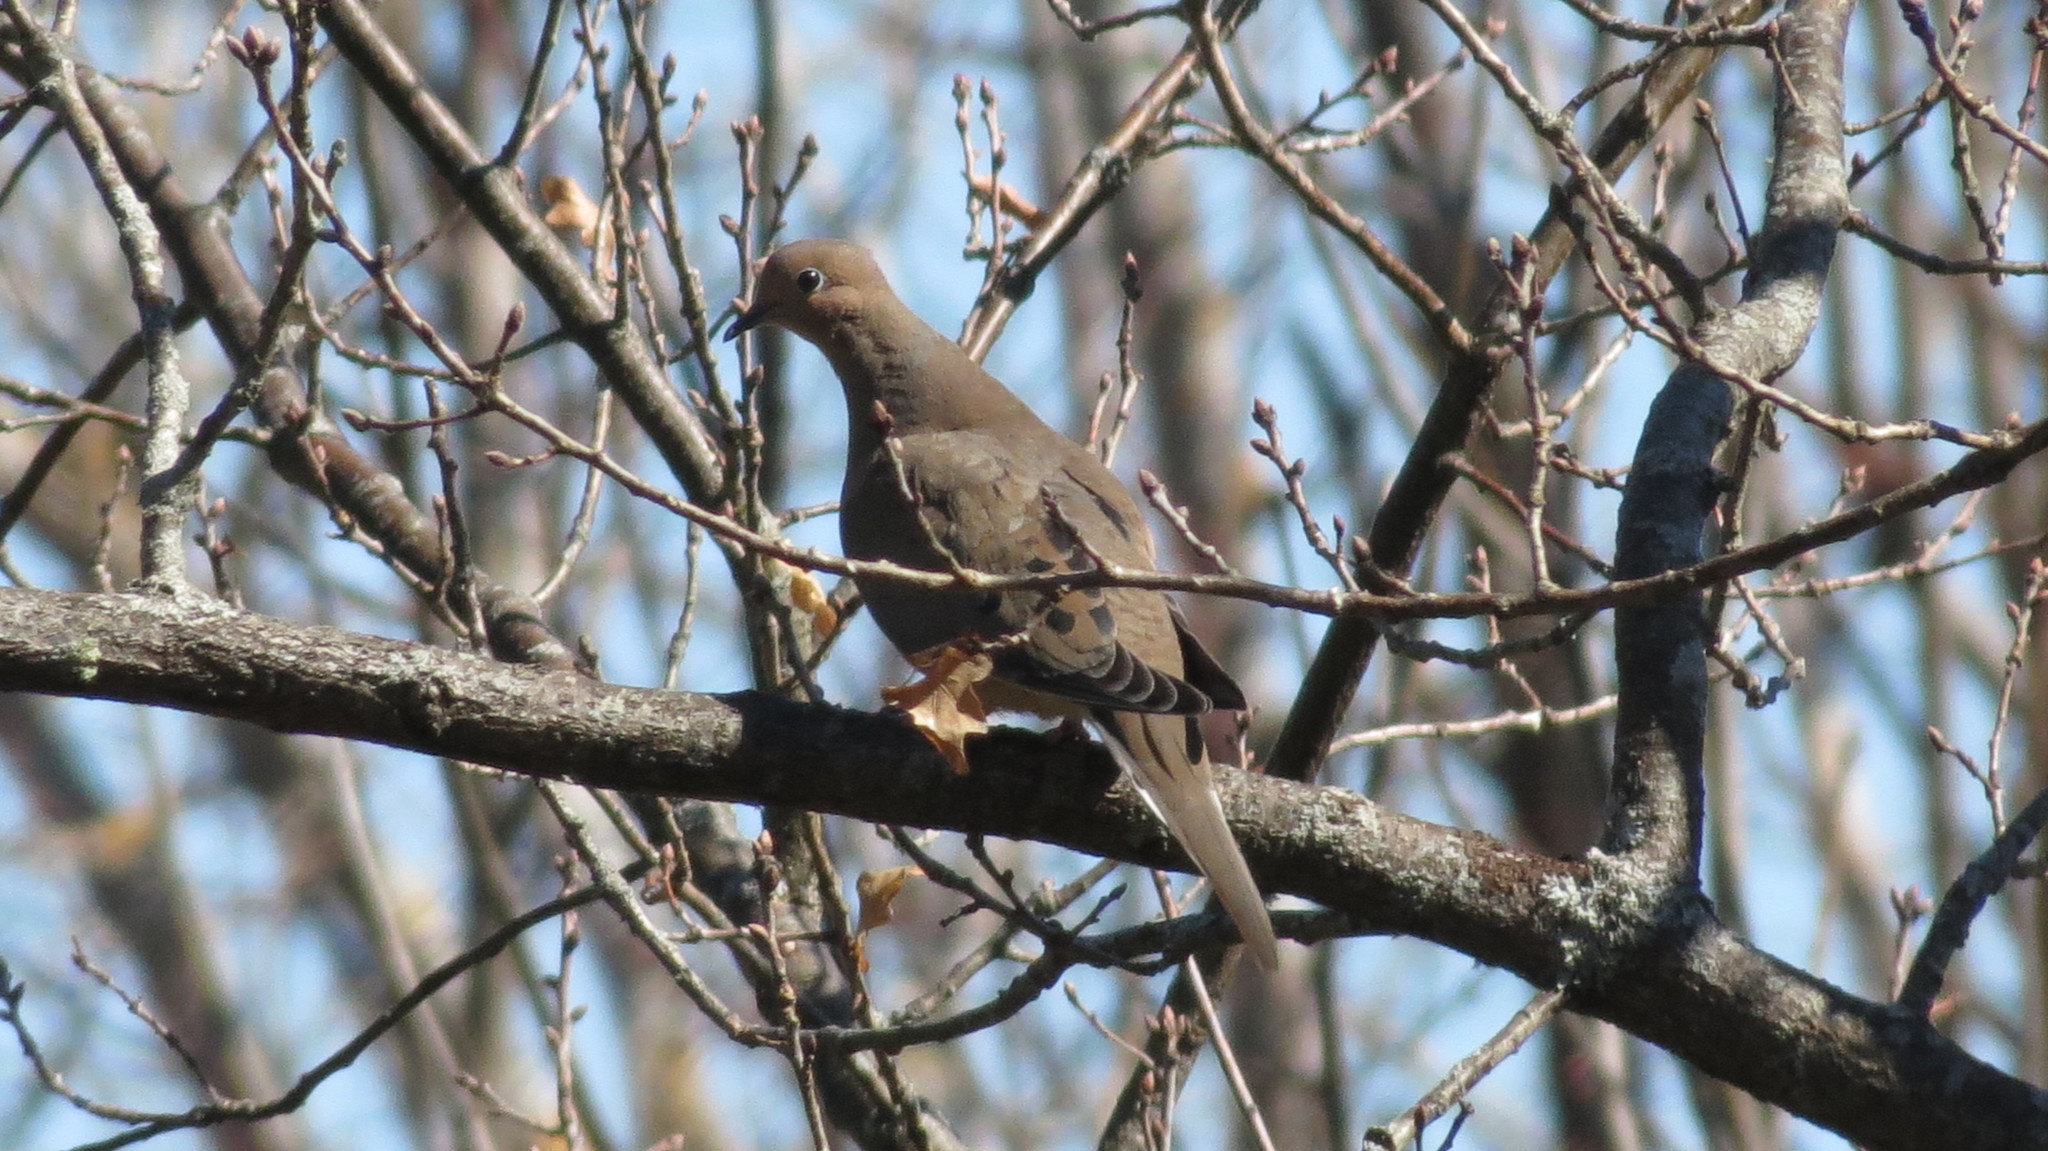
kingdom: Animalia
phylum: Chordata
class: Aves
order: Columbiformes
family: Columbidae
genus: Zenaida
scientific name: Zenaida macroura
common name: Mourning dove
